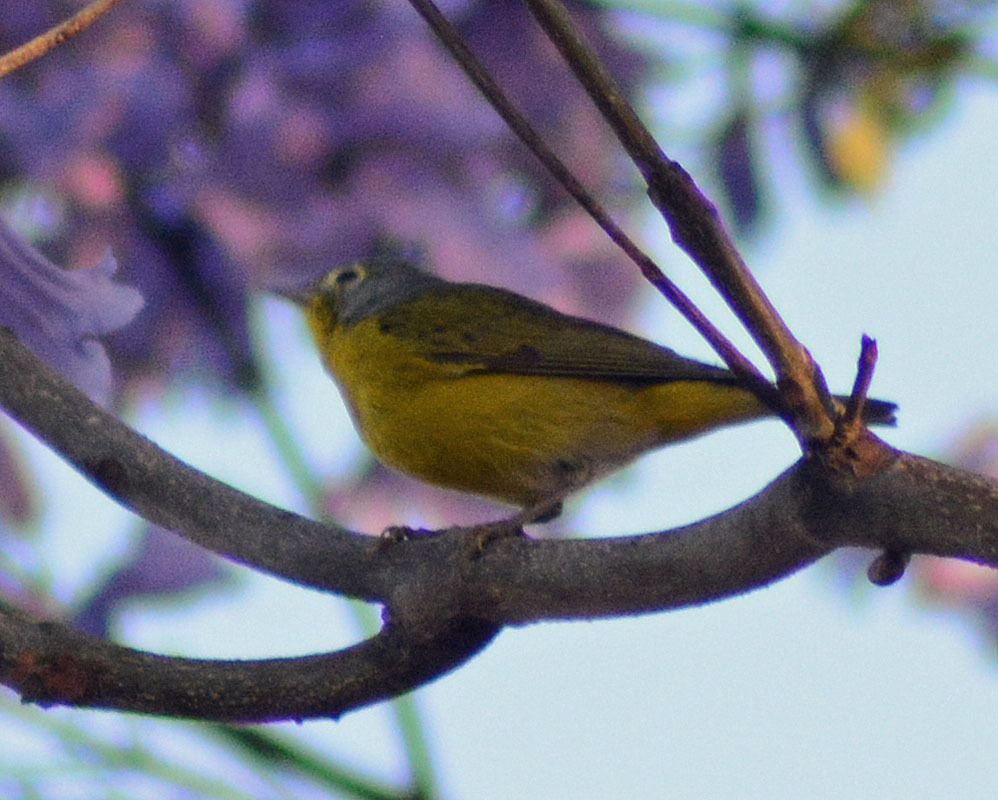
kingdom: Animalia
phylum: Chordata
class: Aves
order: Passeriformes
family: Parulidae
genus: Leiothlypis
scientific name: Leiothlypis ruficapilla
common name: Nashville warbler
